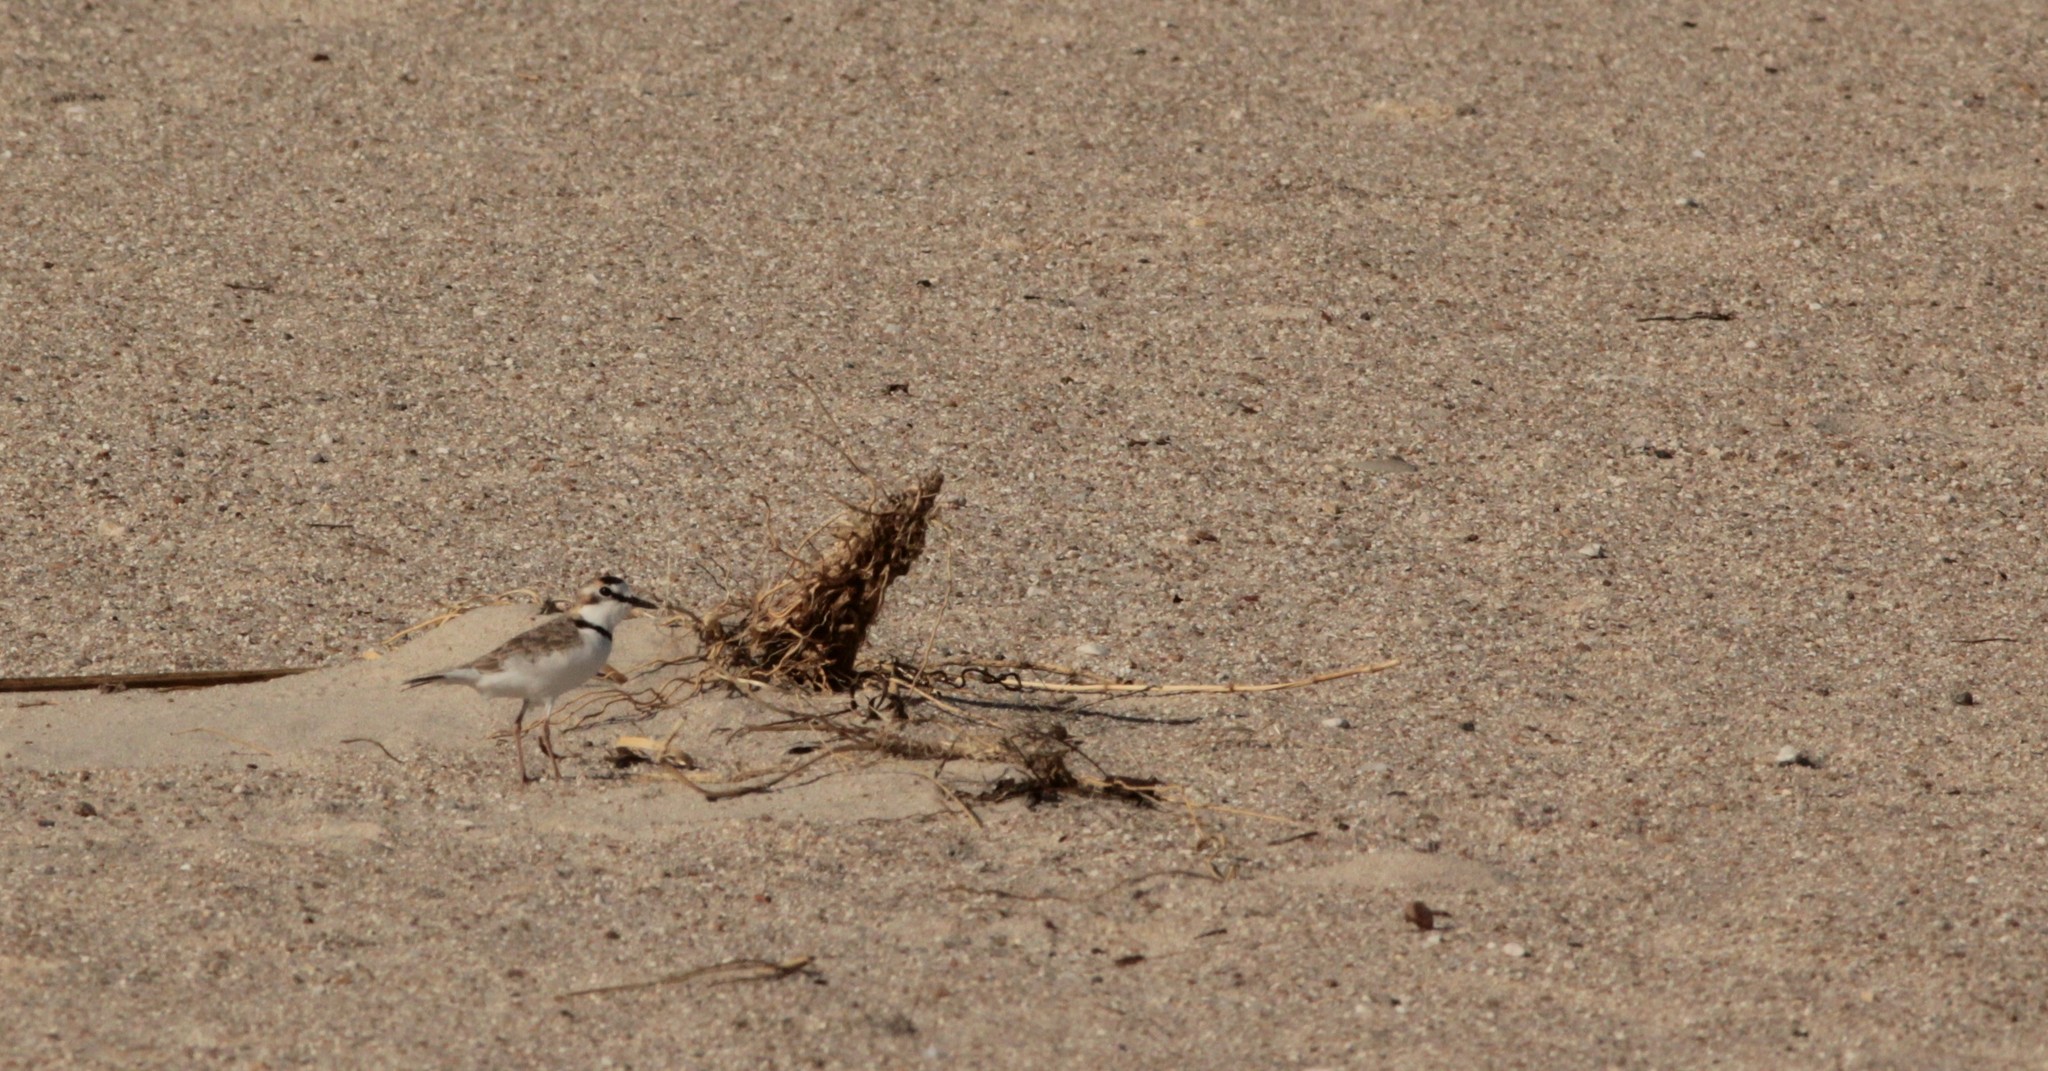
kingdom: Animalia
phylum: Chordata
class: Aves
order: Charadriiformes
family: Charadriidae
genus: Anarhynchus
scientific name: Anarhynchus
